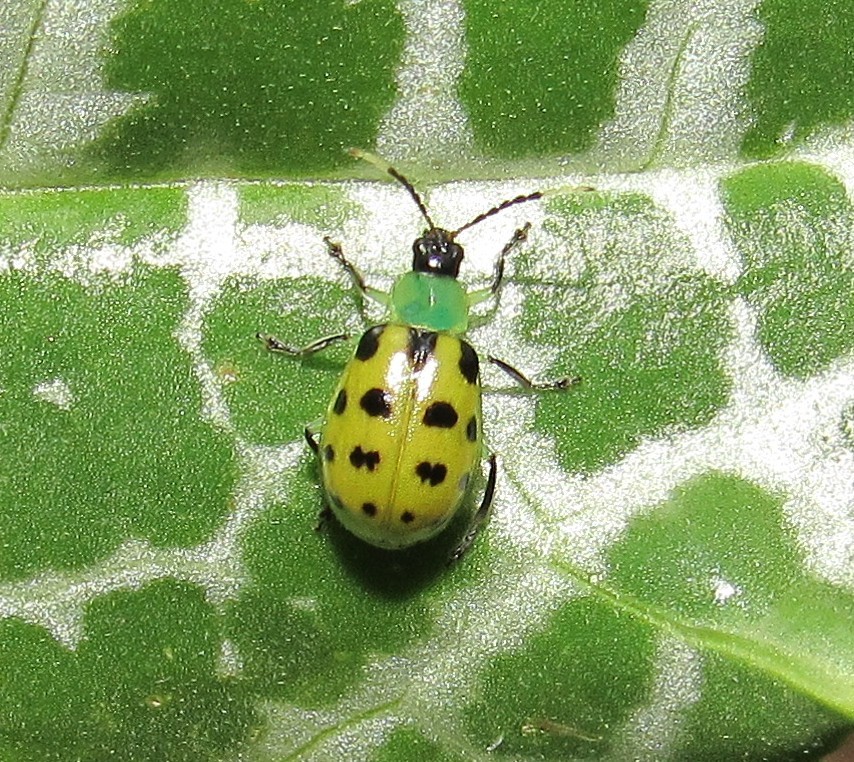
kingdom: Animalia
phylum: Arthropoda
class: Insecta
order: Coleoptera
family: Chrysomelidae
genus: Diabrotica
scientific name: Diabrotica limitata
